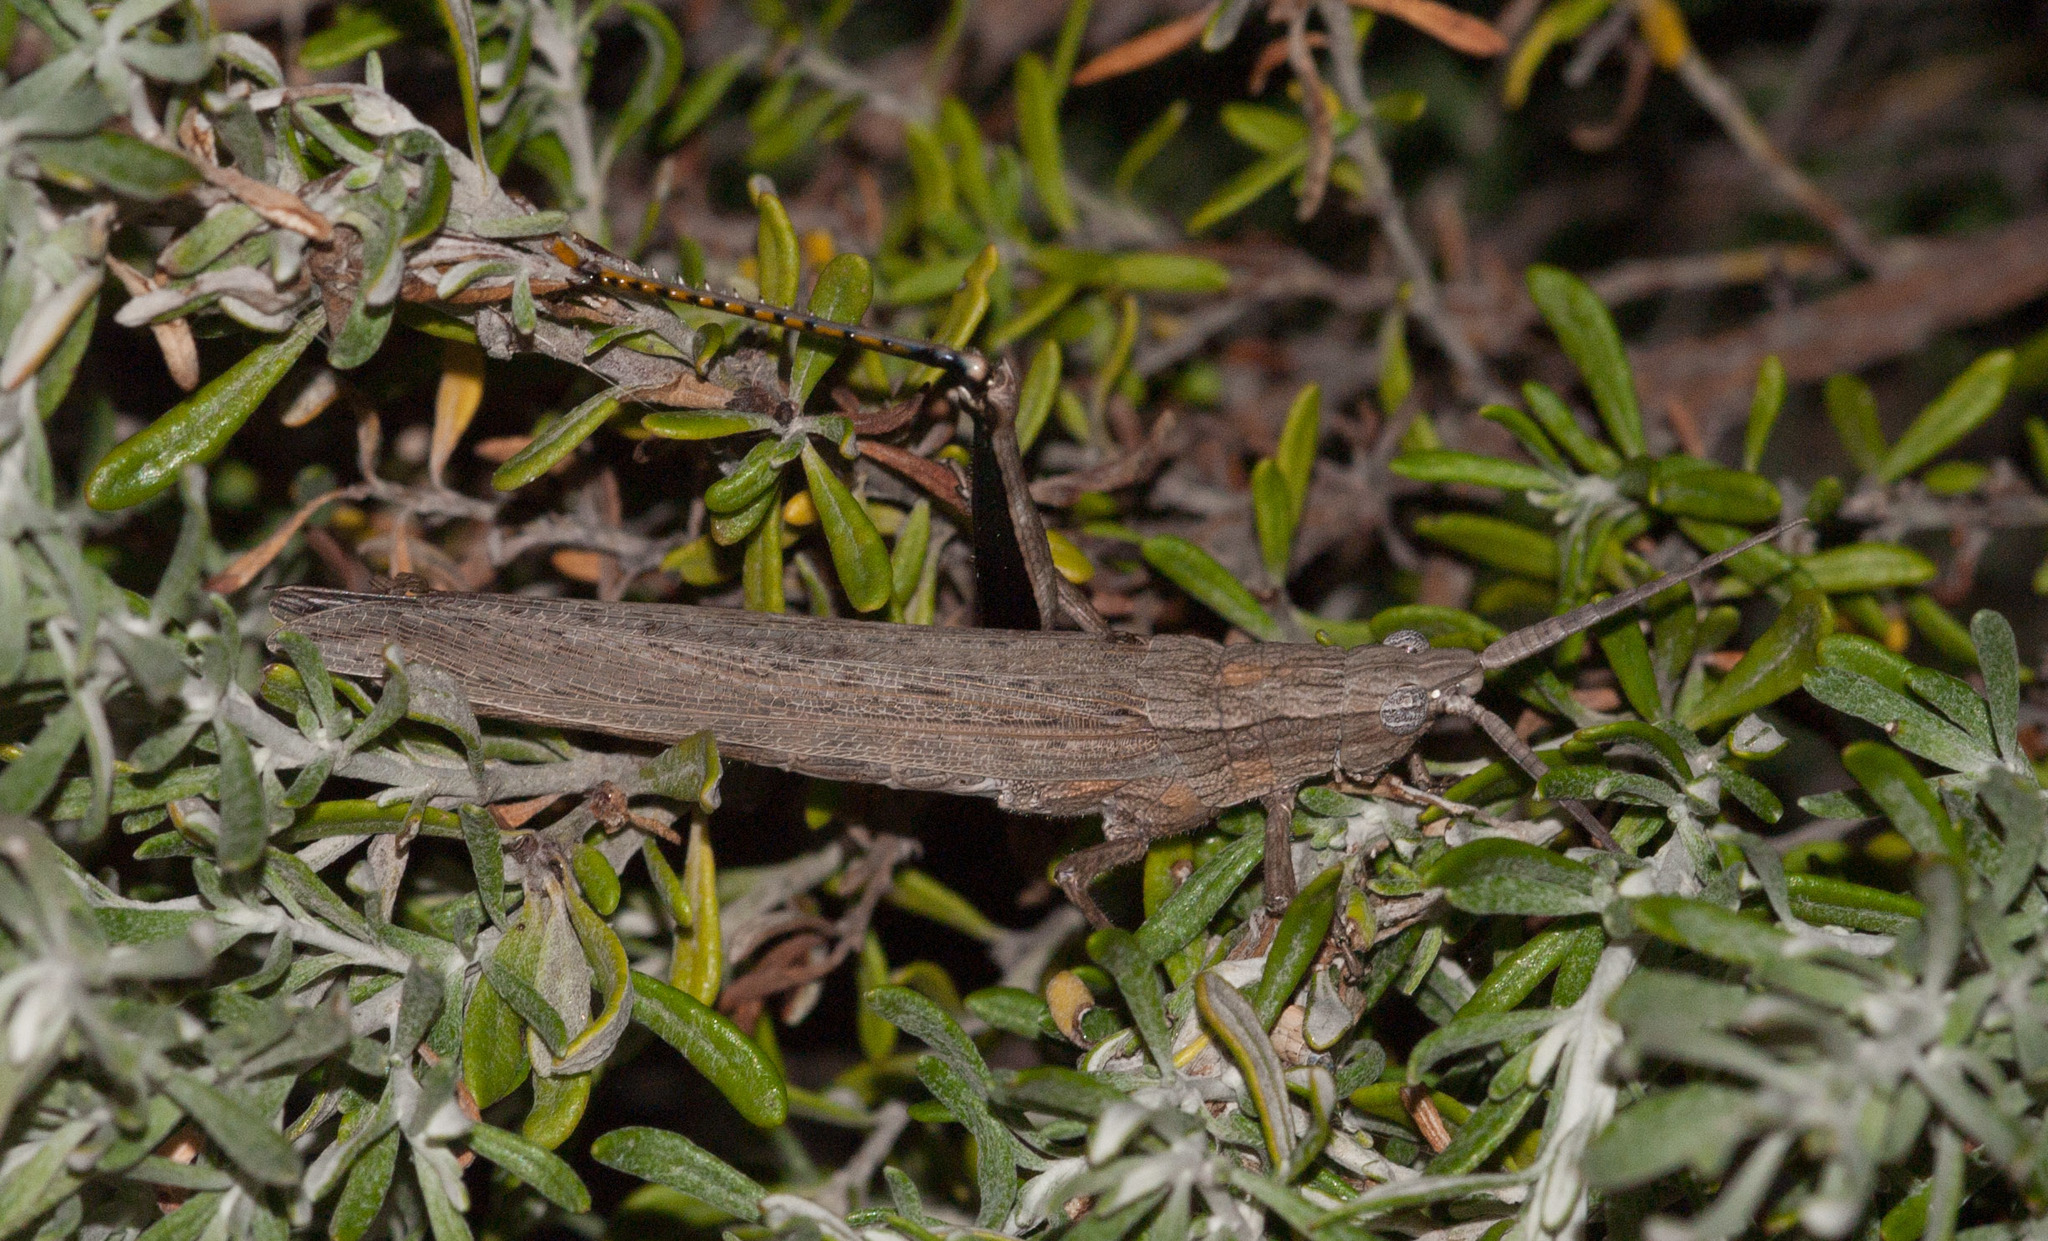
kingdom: Animalia
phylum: Arthropoda
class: Insecta
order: Orthoptera
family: Acrididae
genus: Coryphistes
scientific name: Coryphistes ruricola
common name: Bark-mimicking grasshopper
